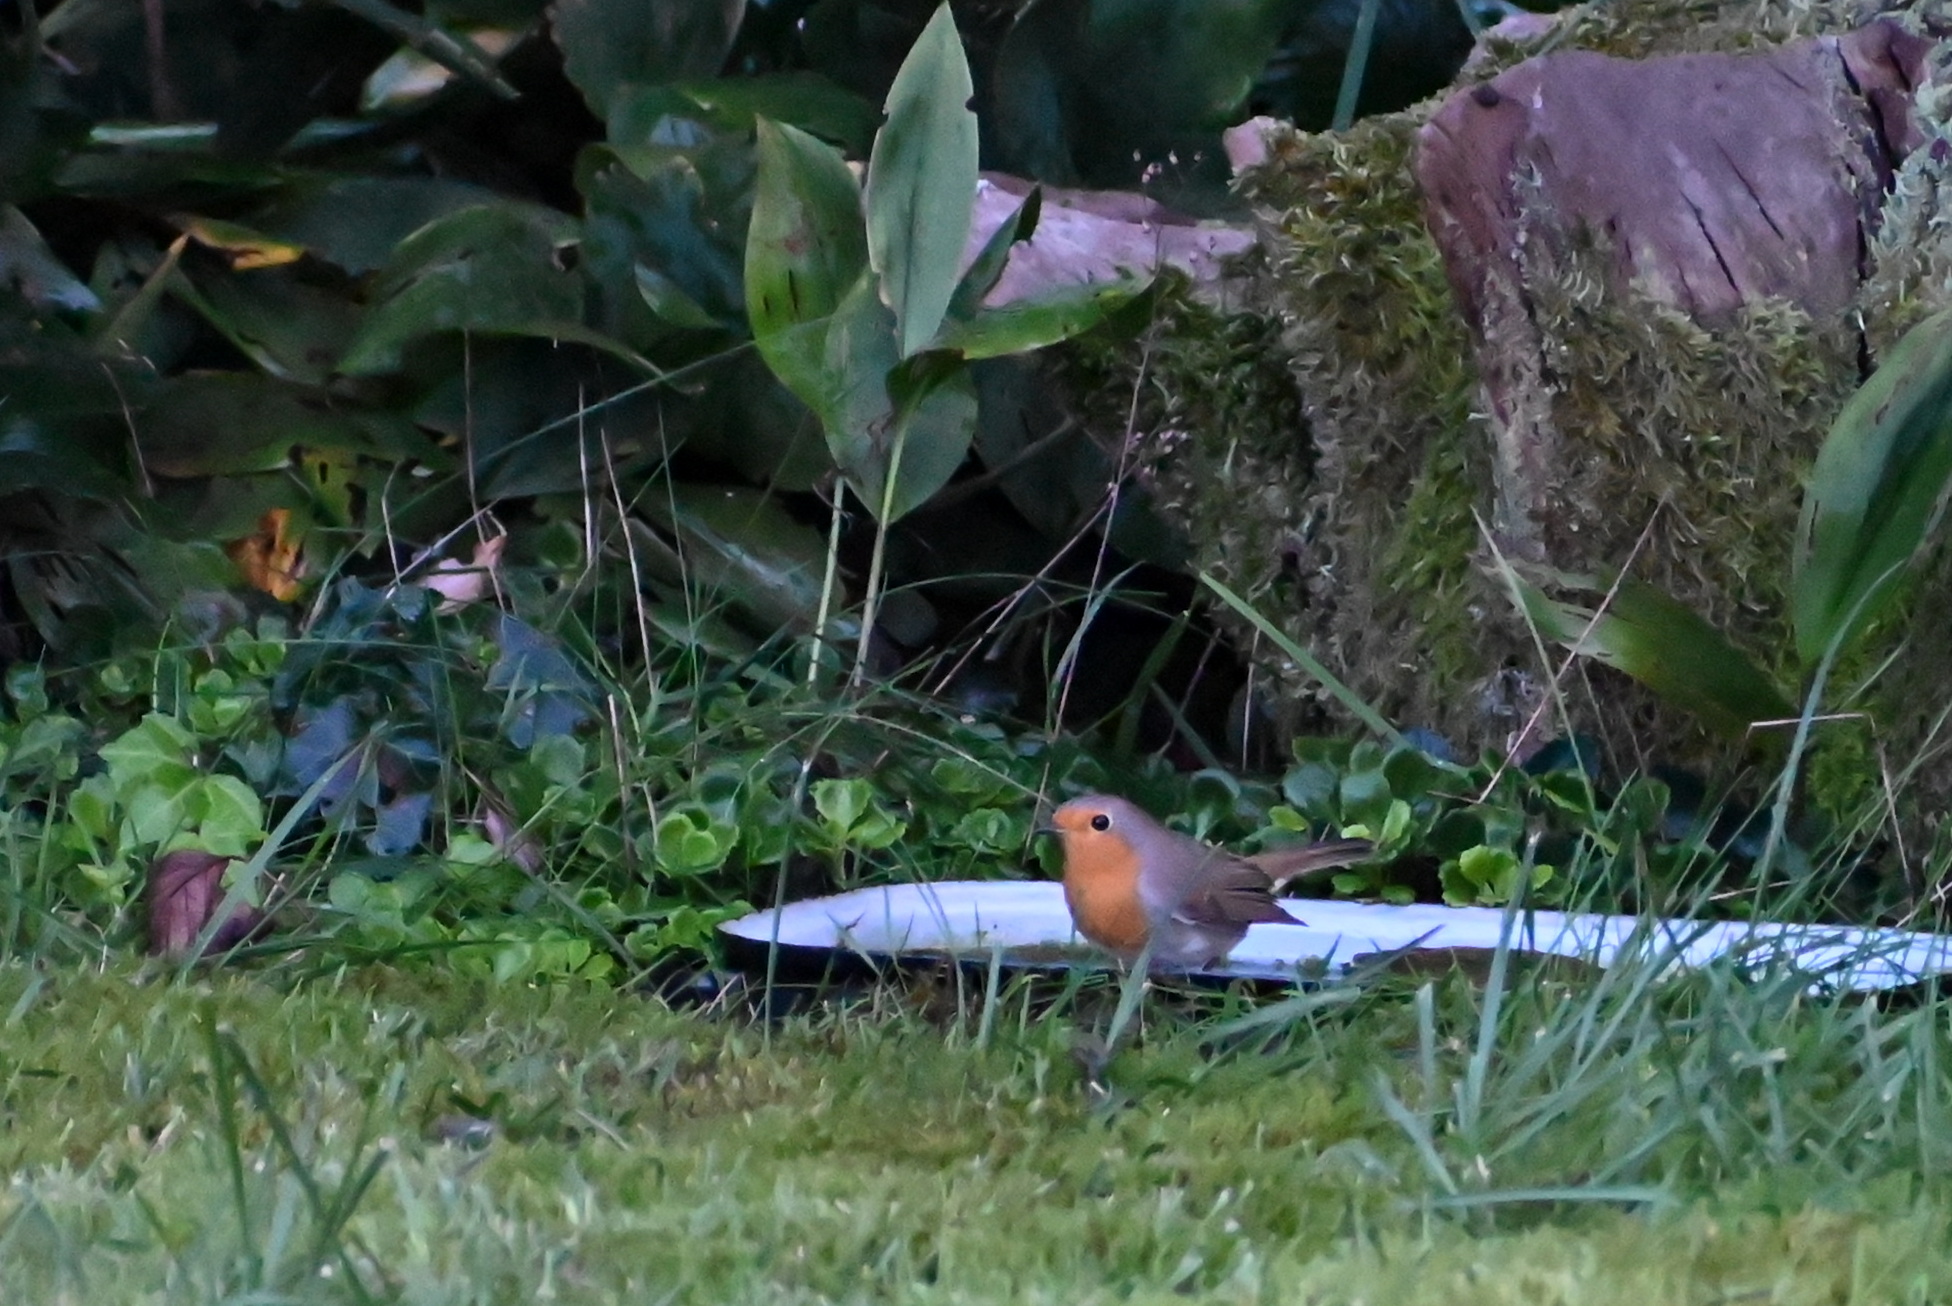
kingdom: Animalia
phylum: Chordata
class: Aves
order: Passeriformes
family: Muscicapidae
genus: Erithacus
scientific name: Erithacus rubecula
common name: European robin
